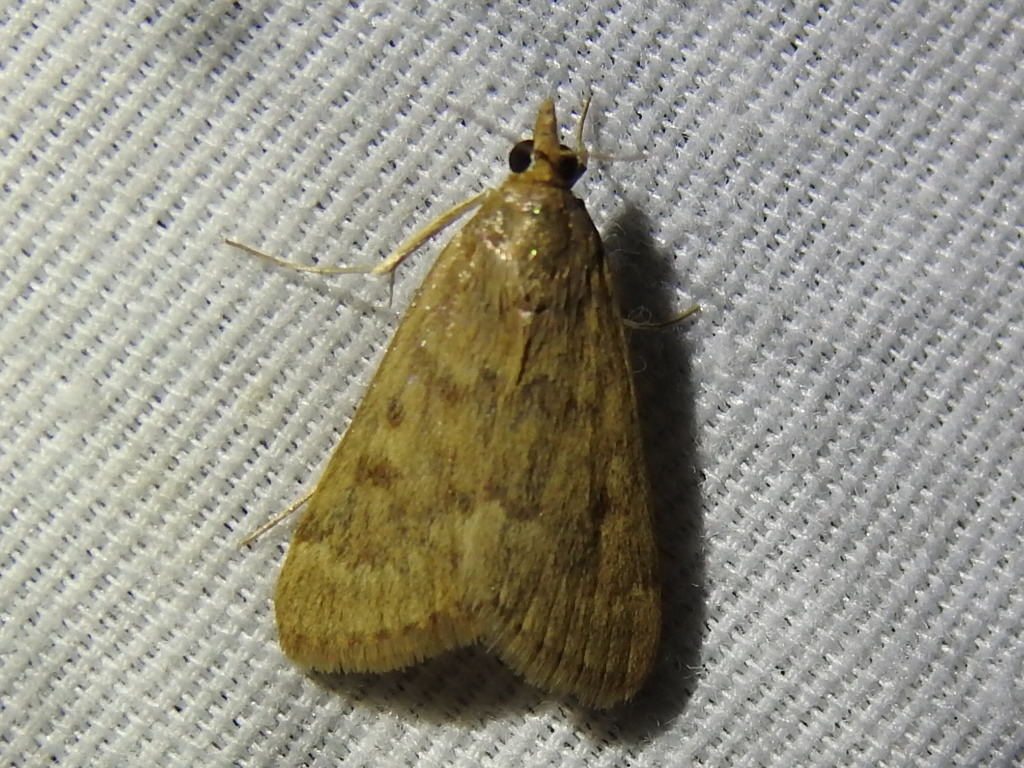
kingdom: Animalia
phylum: Arthropoda
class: Insecta
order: Lepidoptera
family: Crambidae
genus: Achyra
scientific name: Achyra rantalis
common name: Garden webworm
